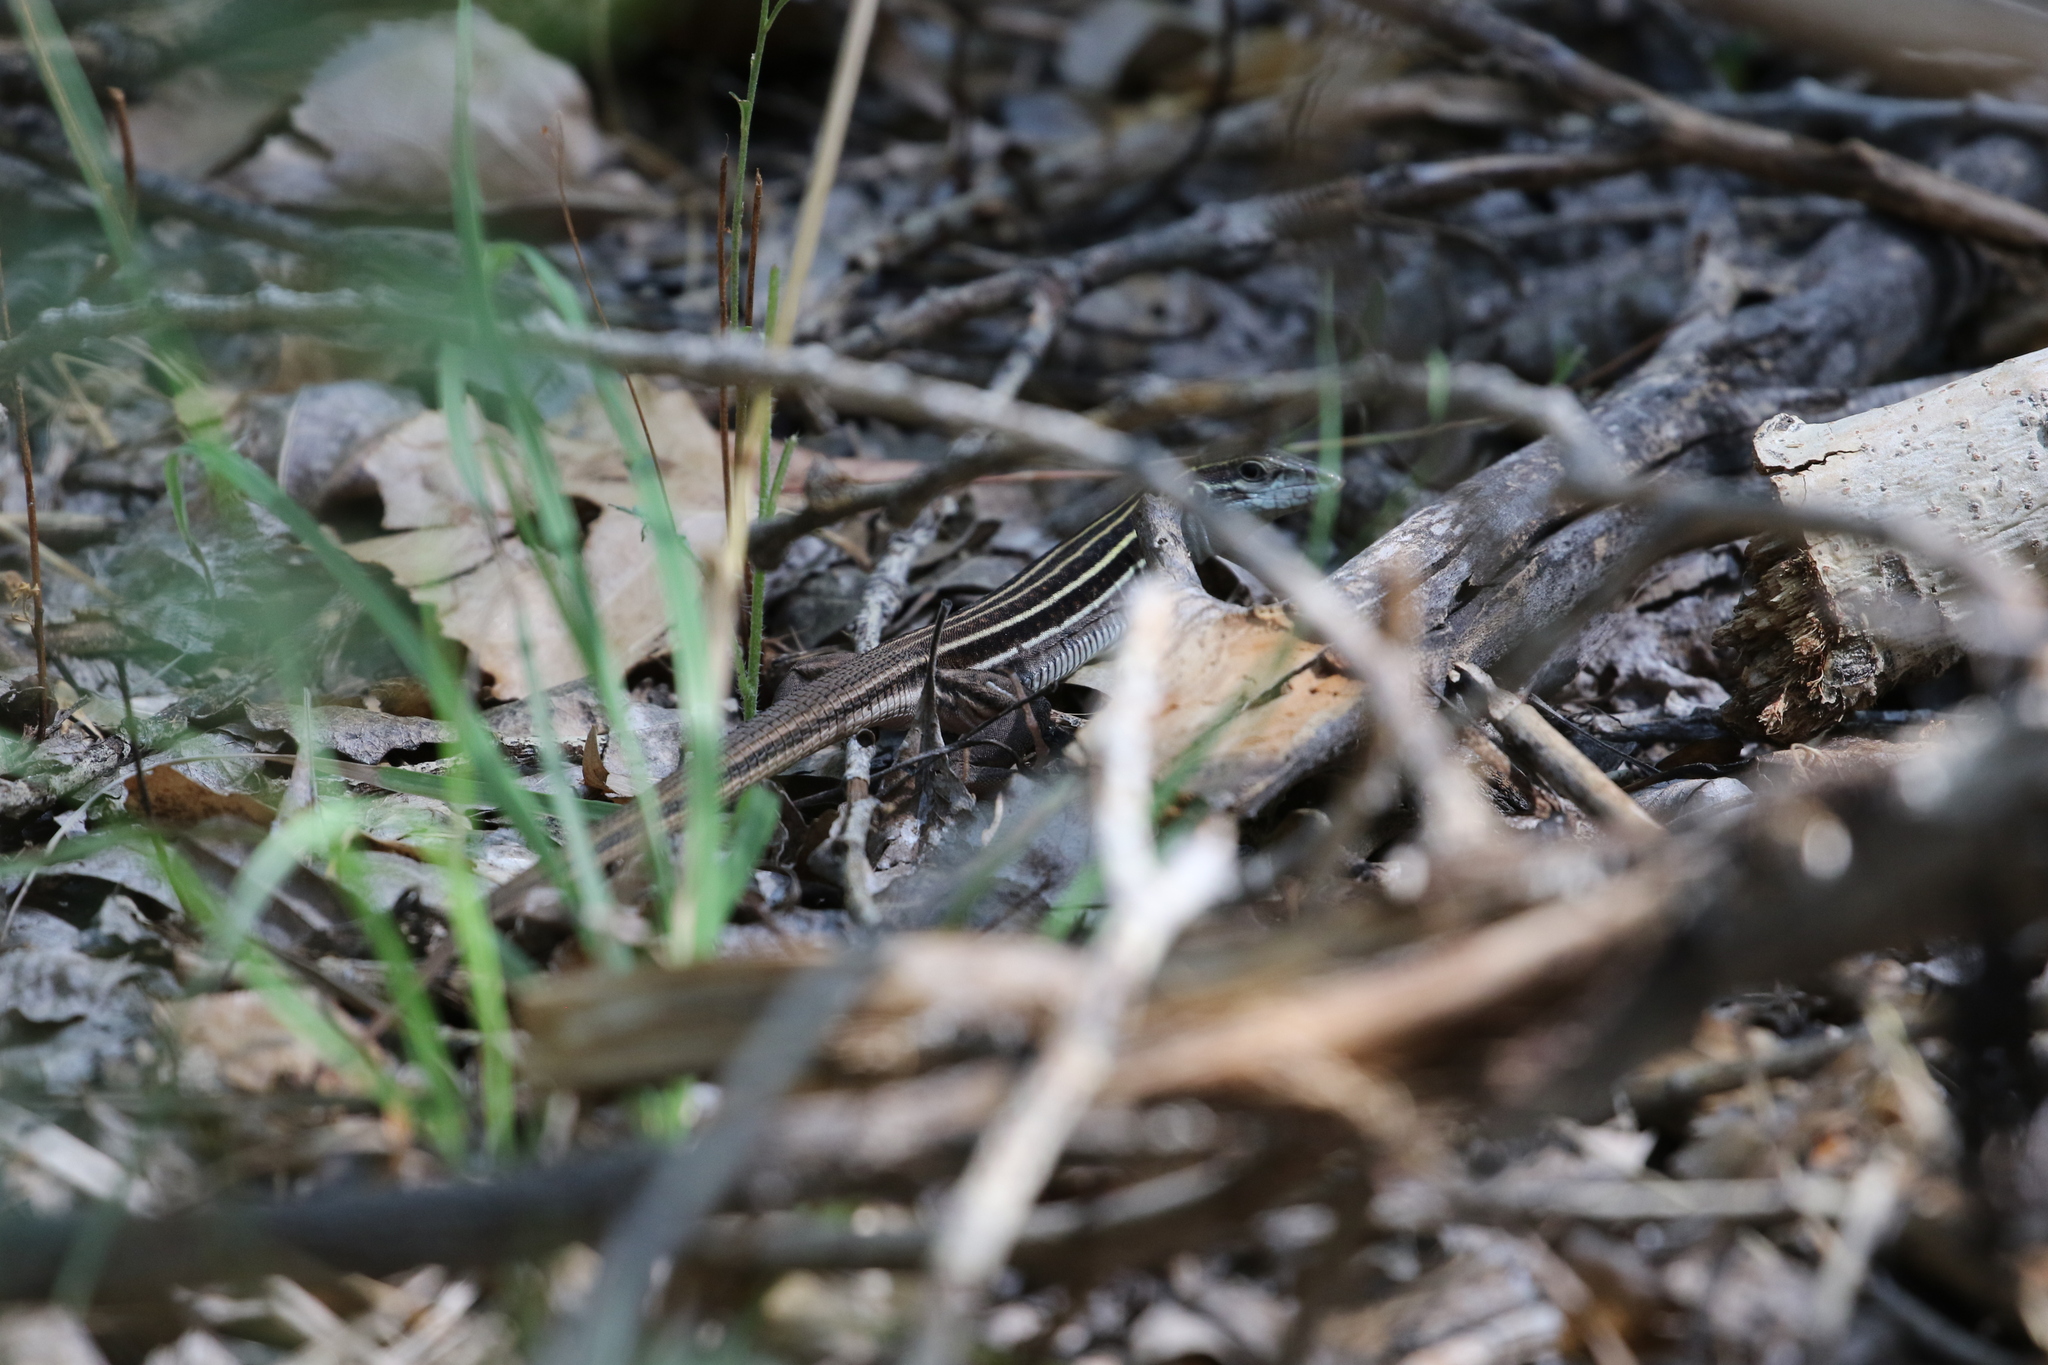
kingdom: Animalia
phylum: Chordata
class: Squamata
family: Teiidae
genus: Aspidoscelis
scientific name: Aspidoscelis sonorae
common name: Sonoran spotted whiptail
